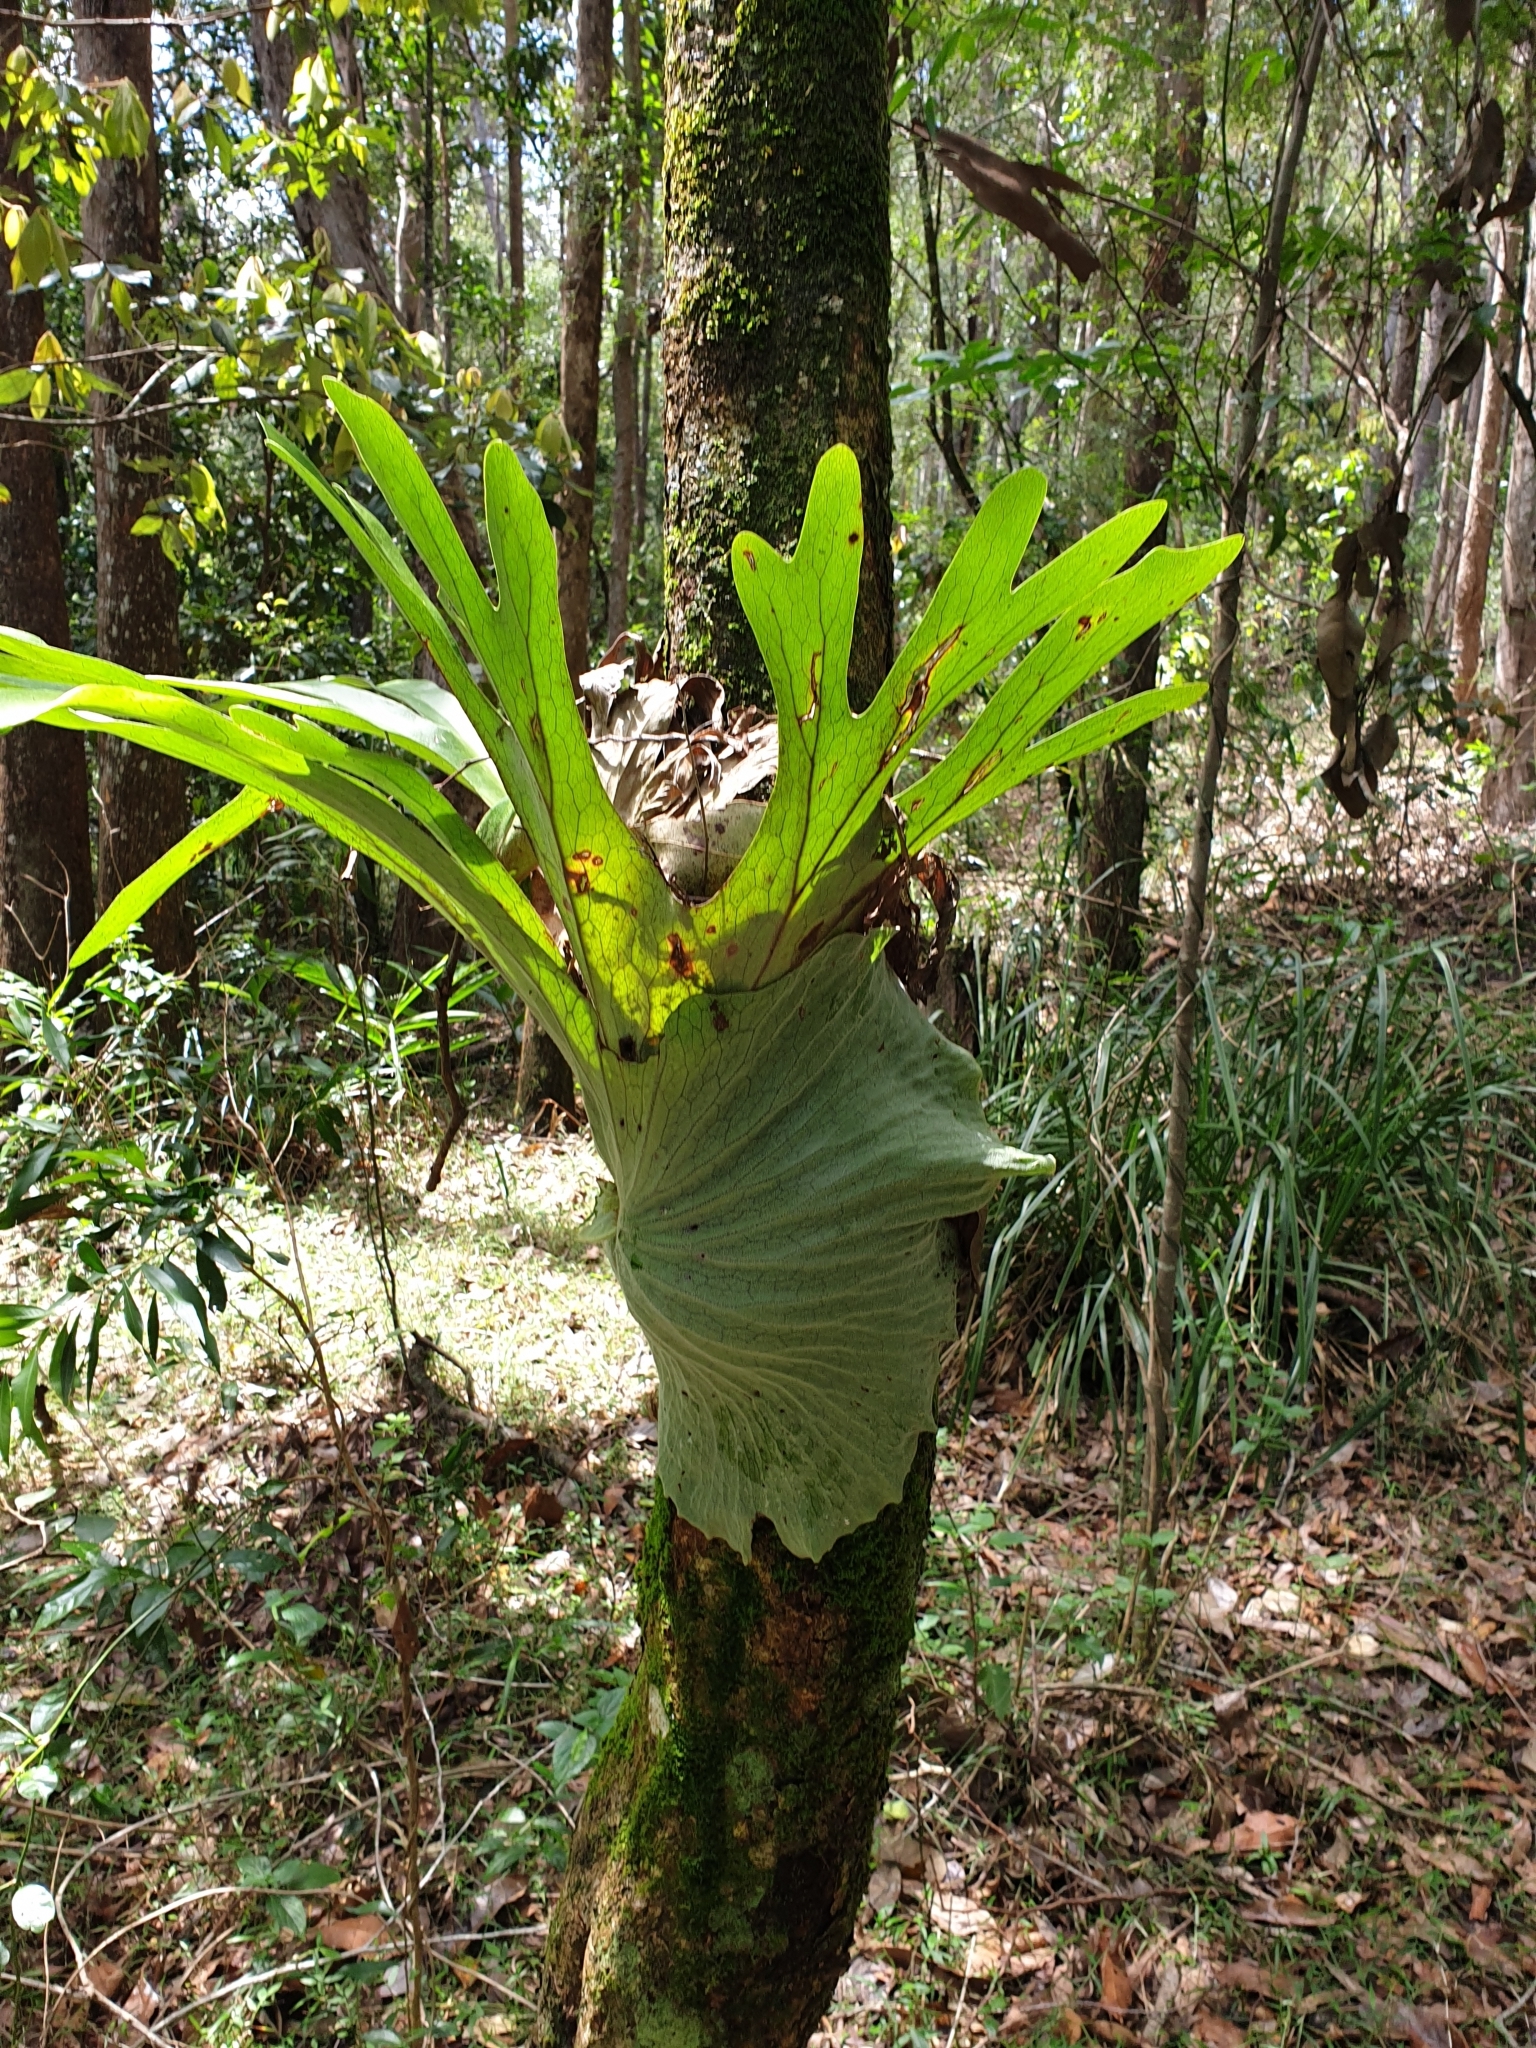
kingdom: Plantae
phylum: Tracheophyta
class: Polypodiopsida
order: Polypodiales
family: Polypodiaceae
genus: Platycerium
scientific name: Platycerium superbum
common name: Staghorn fern
